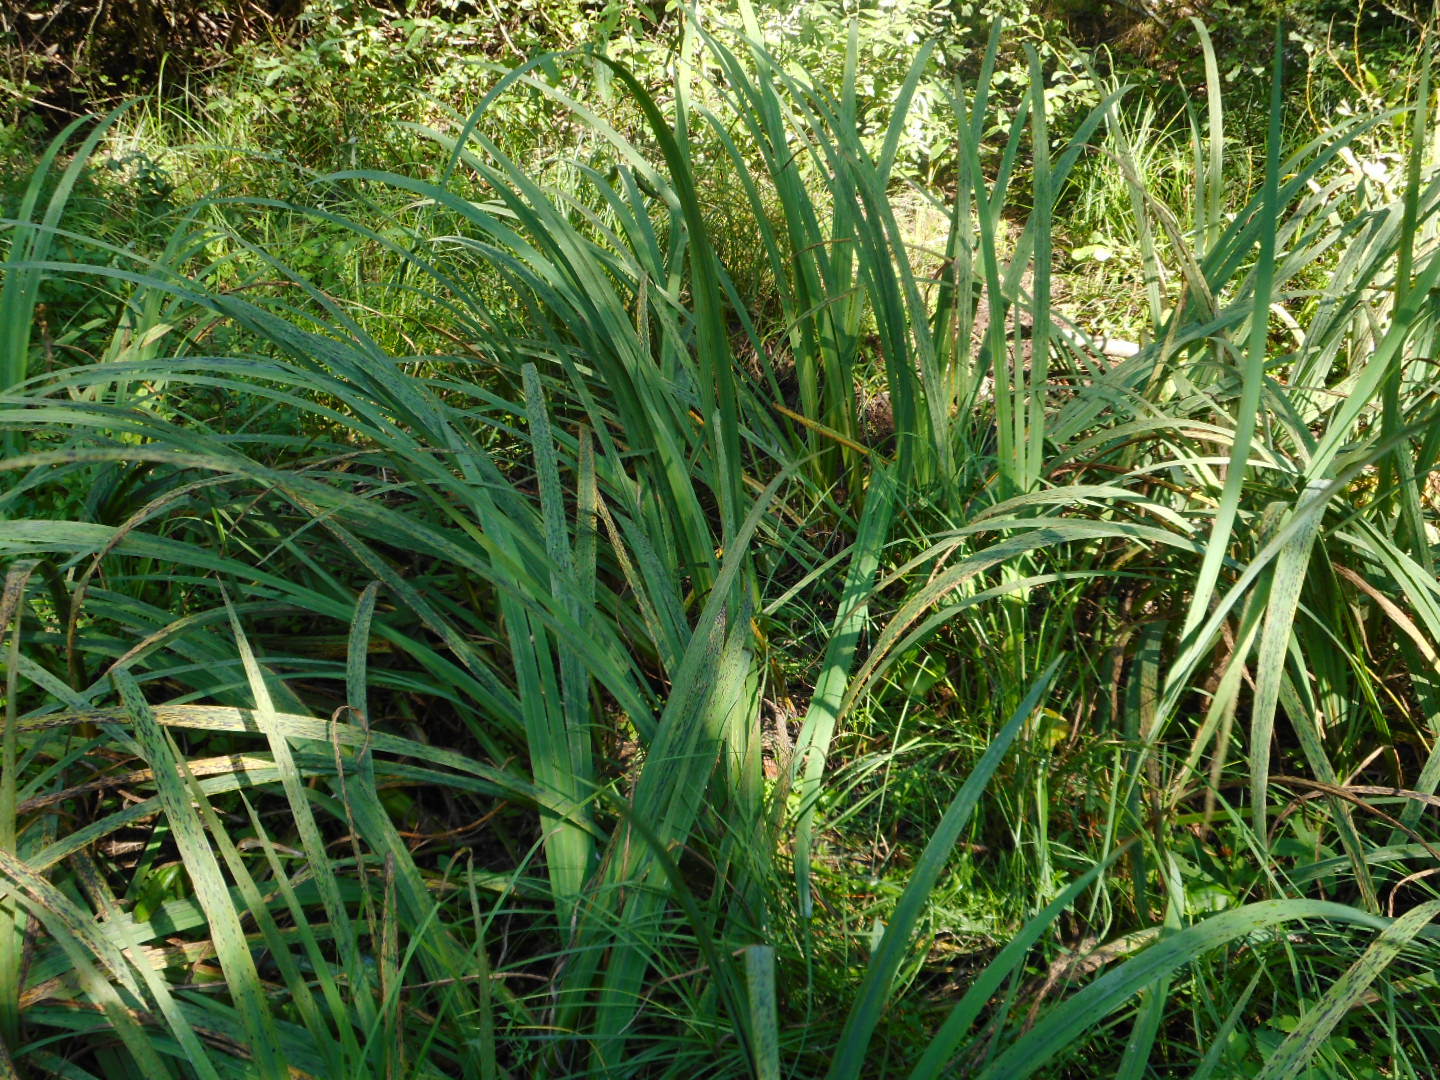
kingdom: Plantae
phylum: Tracheophyta
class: Liliopsida
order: Asparagales
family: Iridaceae
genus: Iris
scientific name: Iris pseudacorus
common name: Yellow flag
